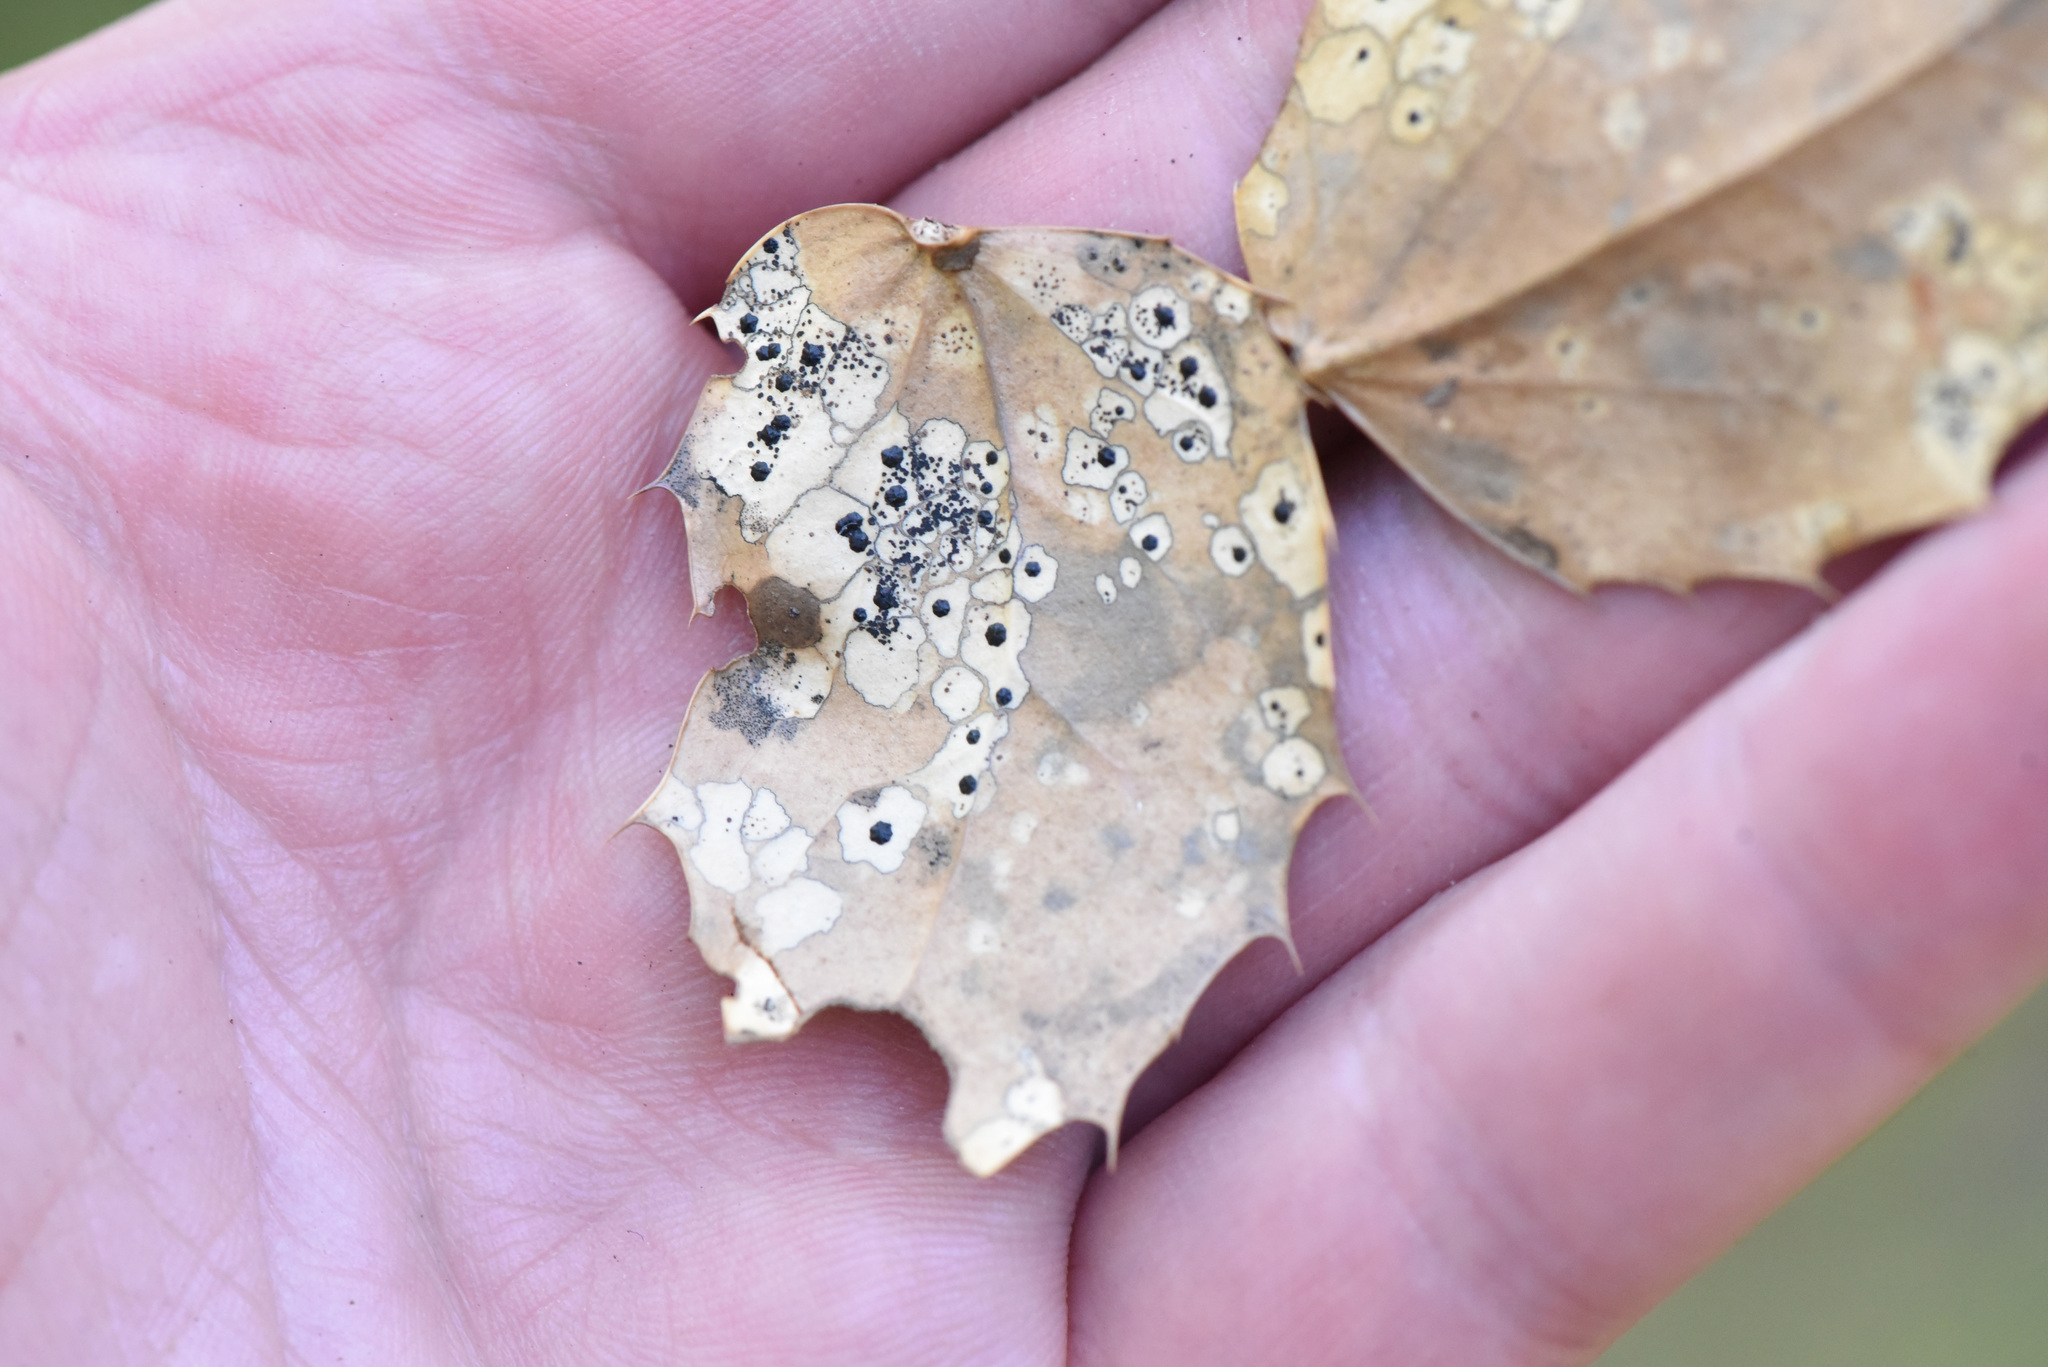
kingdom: Fungi
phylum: Ascomycota
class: Leotiomycetes
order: Rhytismatales
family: Rhytismataceae
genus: Coccomyces
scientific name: Coccomyces dentatus
